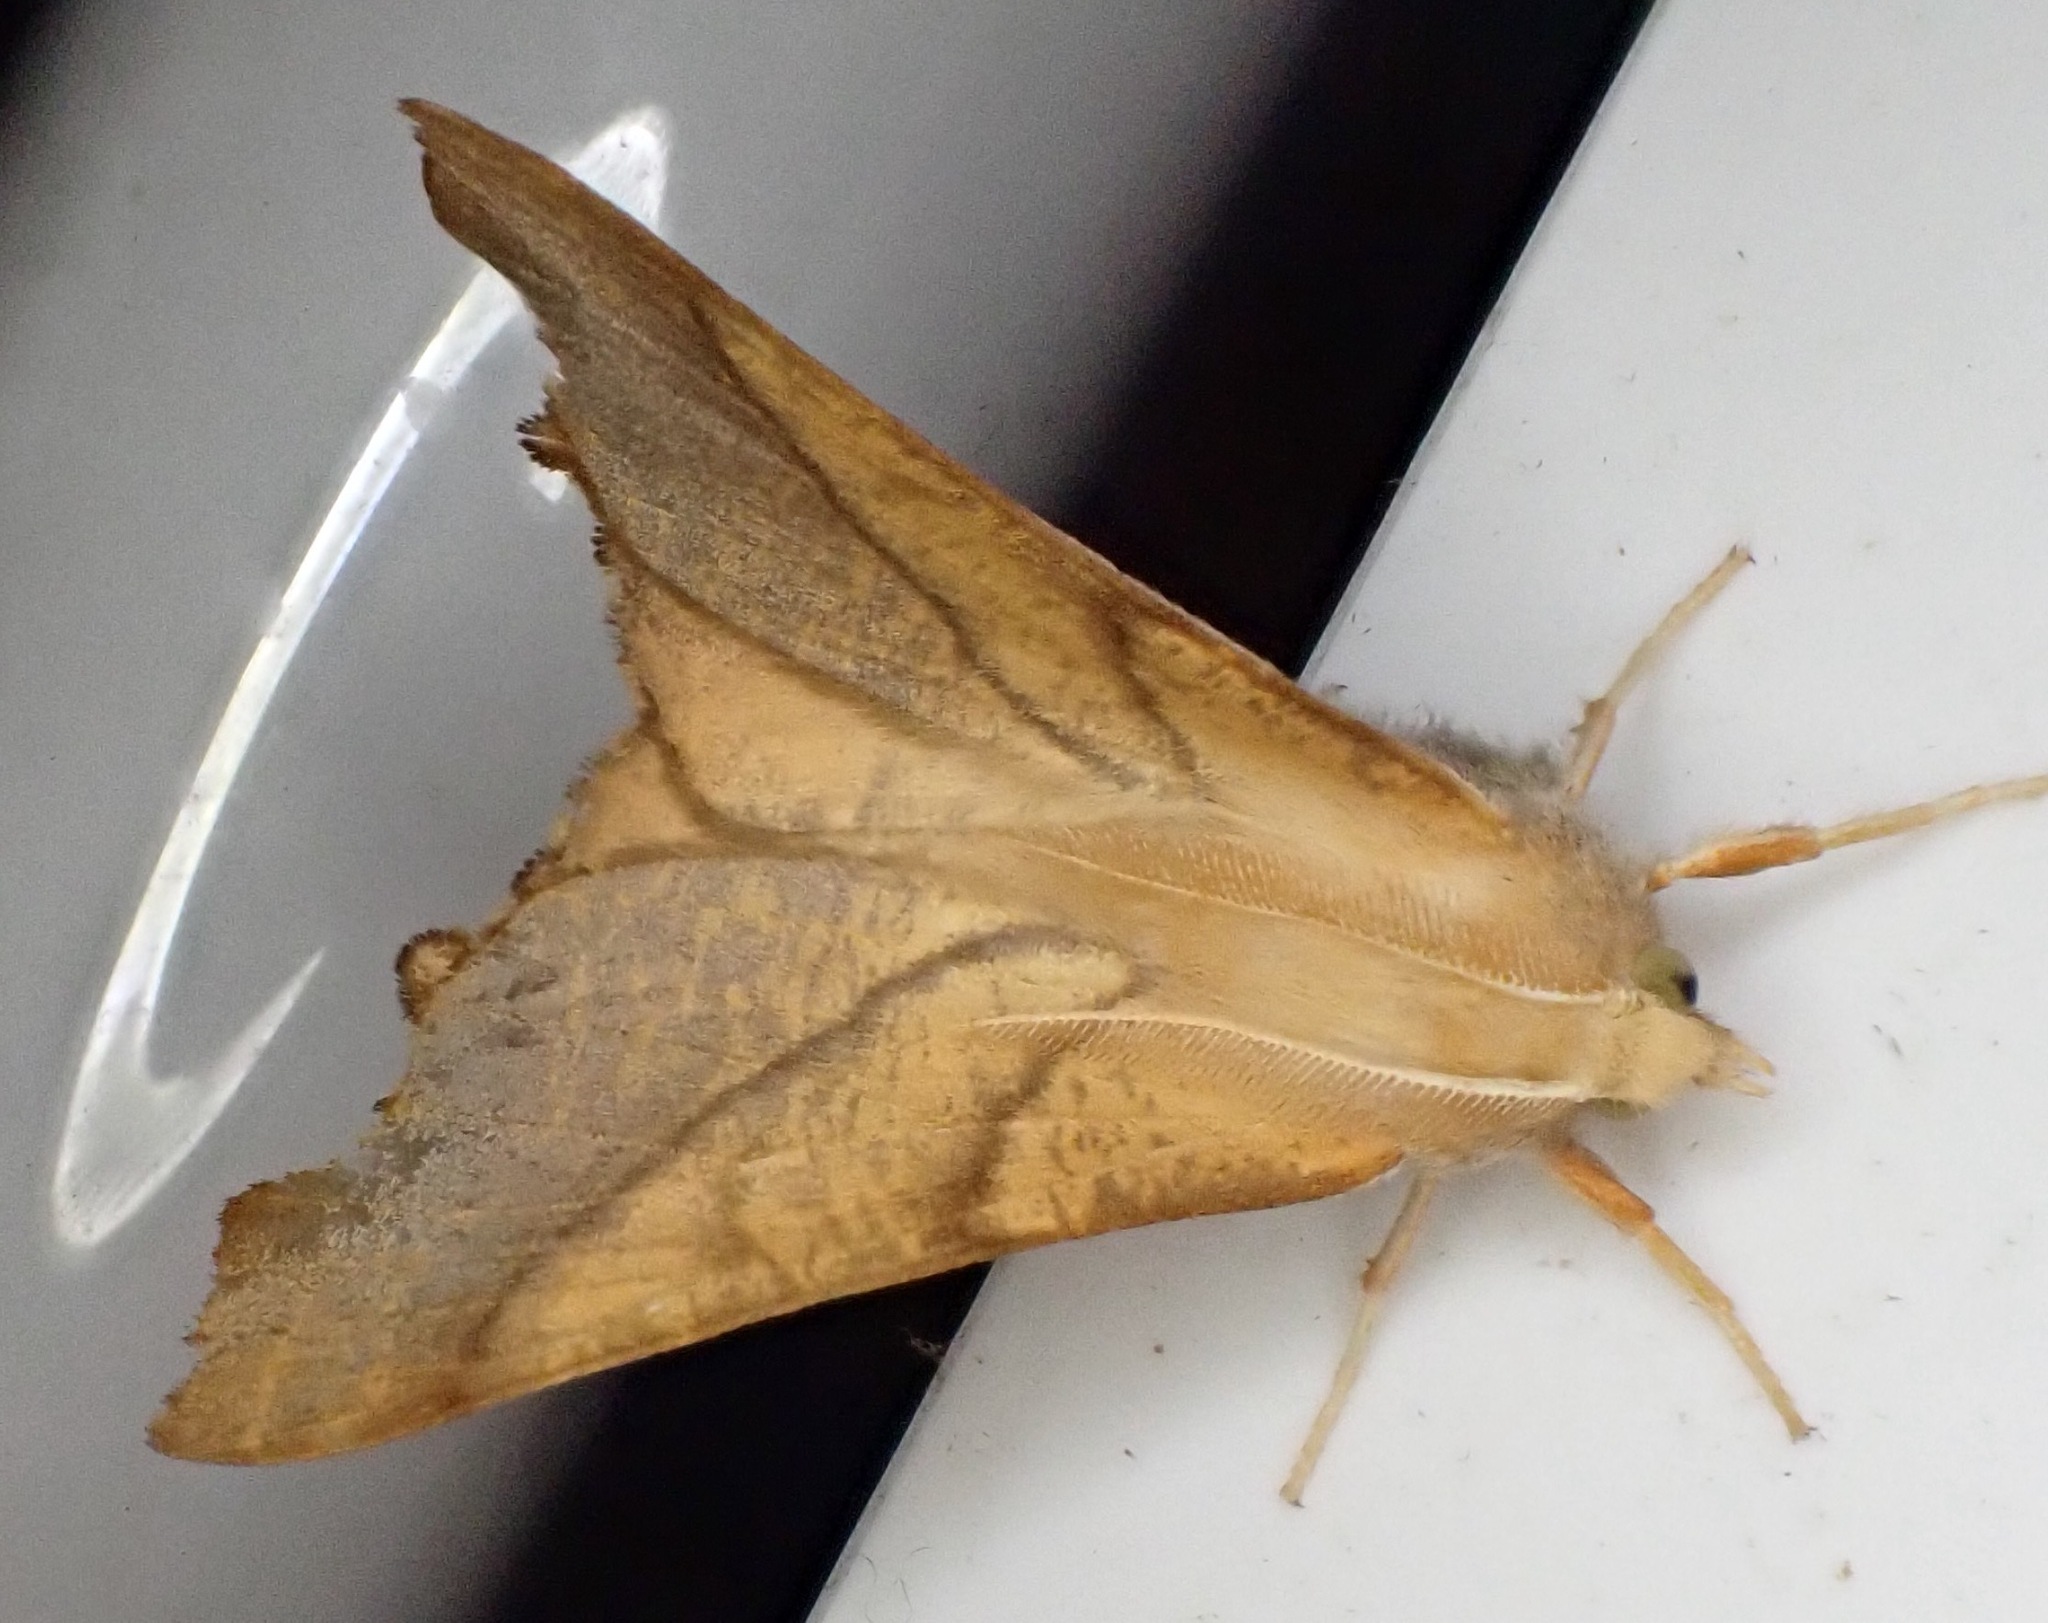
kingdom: Animalia
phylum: Arthropoda
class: Insecta
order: Lepidoptera
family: Geometridae
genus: Ennomos
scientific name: Ennomos fuscantaria
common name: Dusky thorn
